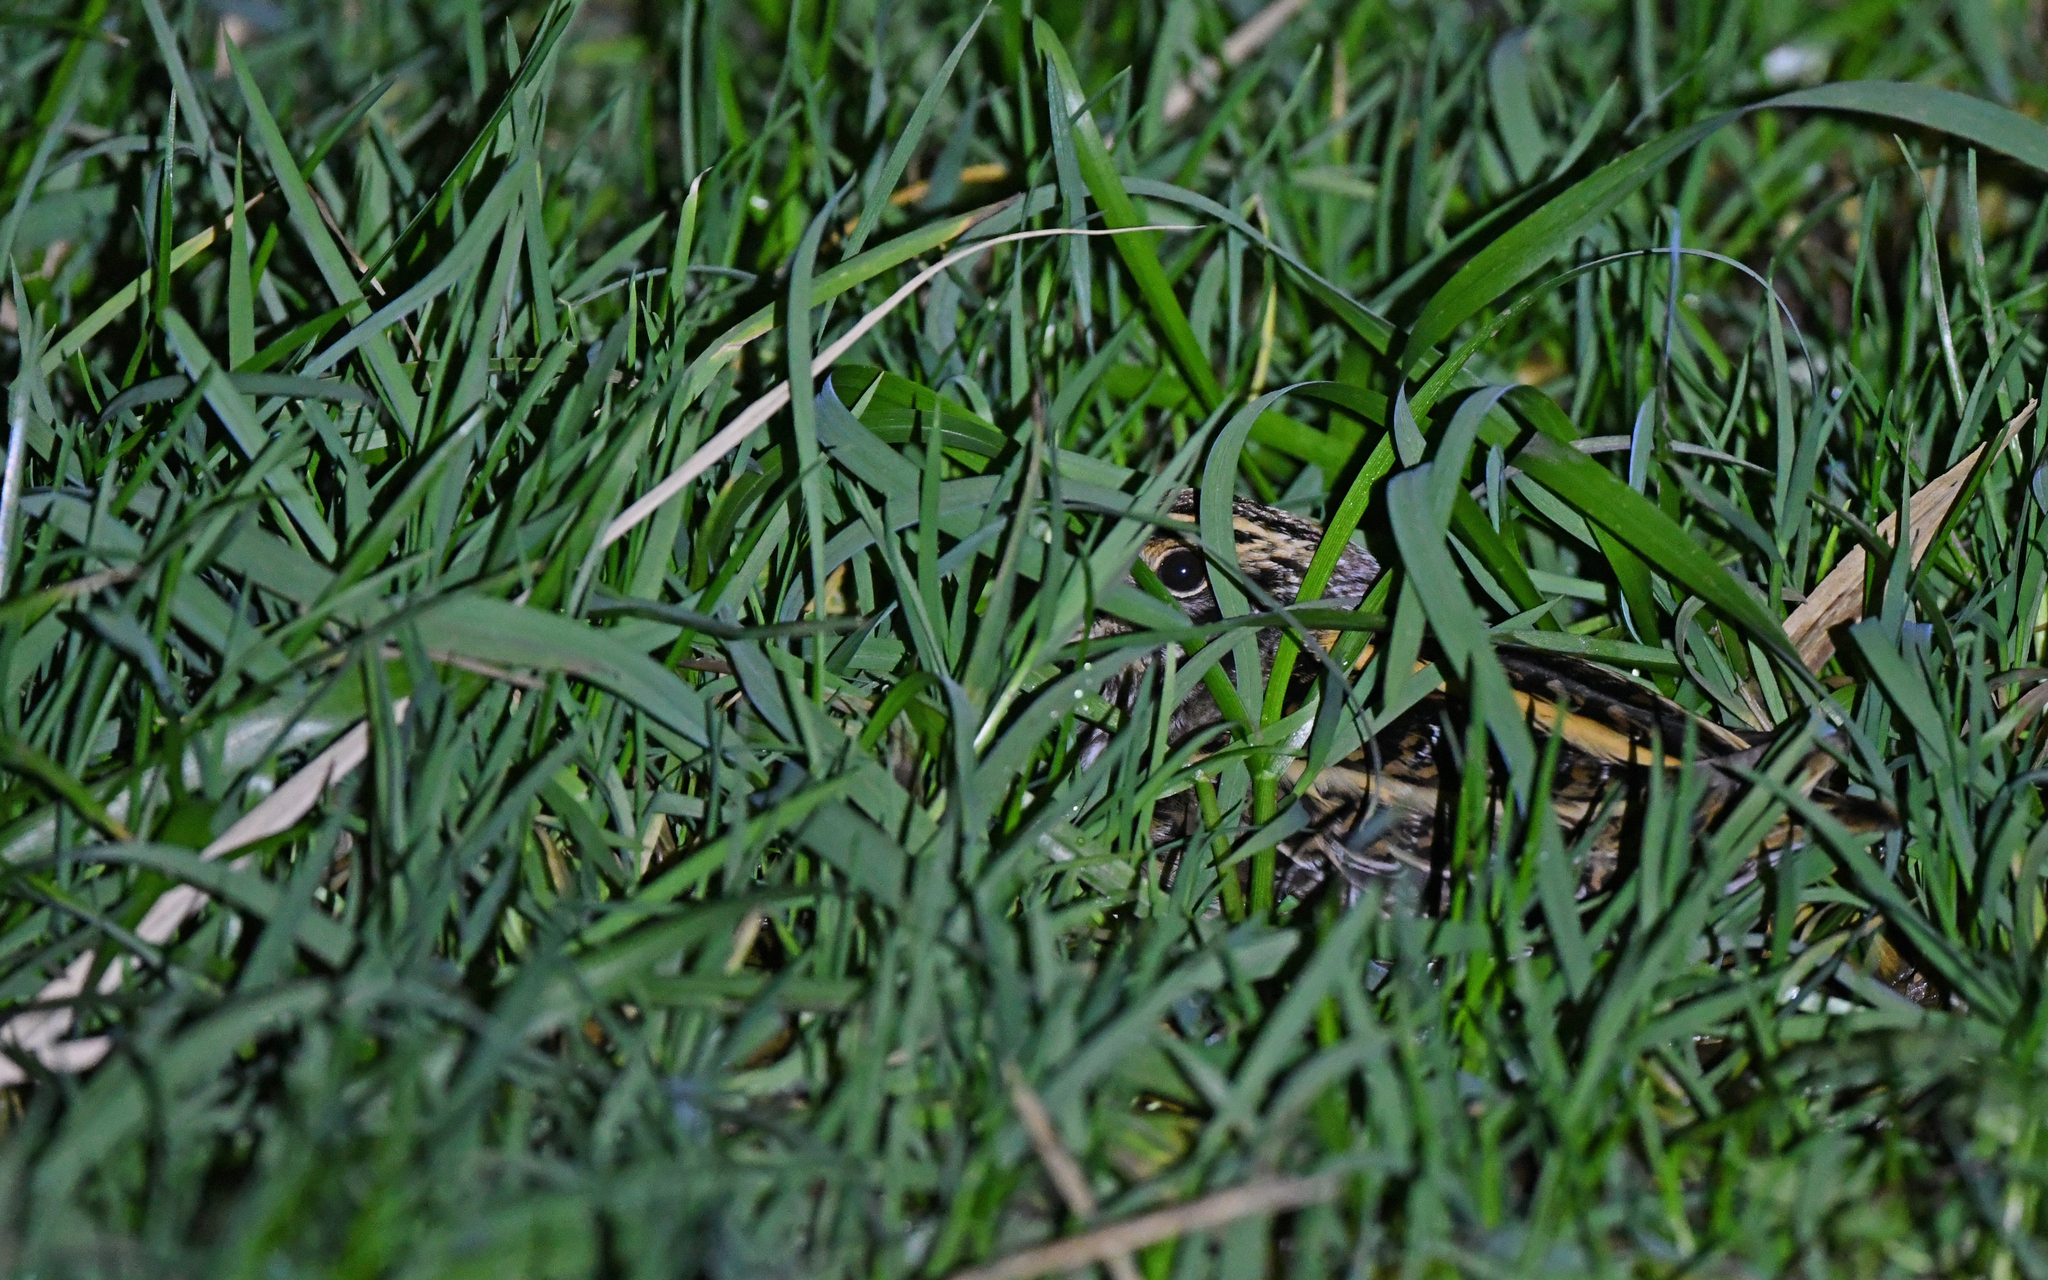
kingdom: Animalia
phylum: Chordata
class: Aves
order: Charadriiformes
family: Scolopacidae
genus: Lymnocryptes
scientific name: Lymnocryptes minimus
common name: Jack snipe
